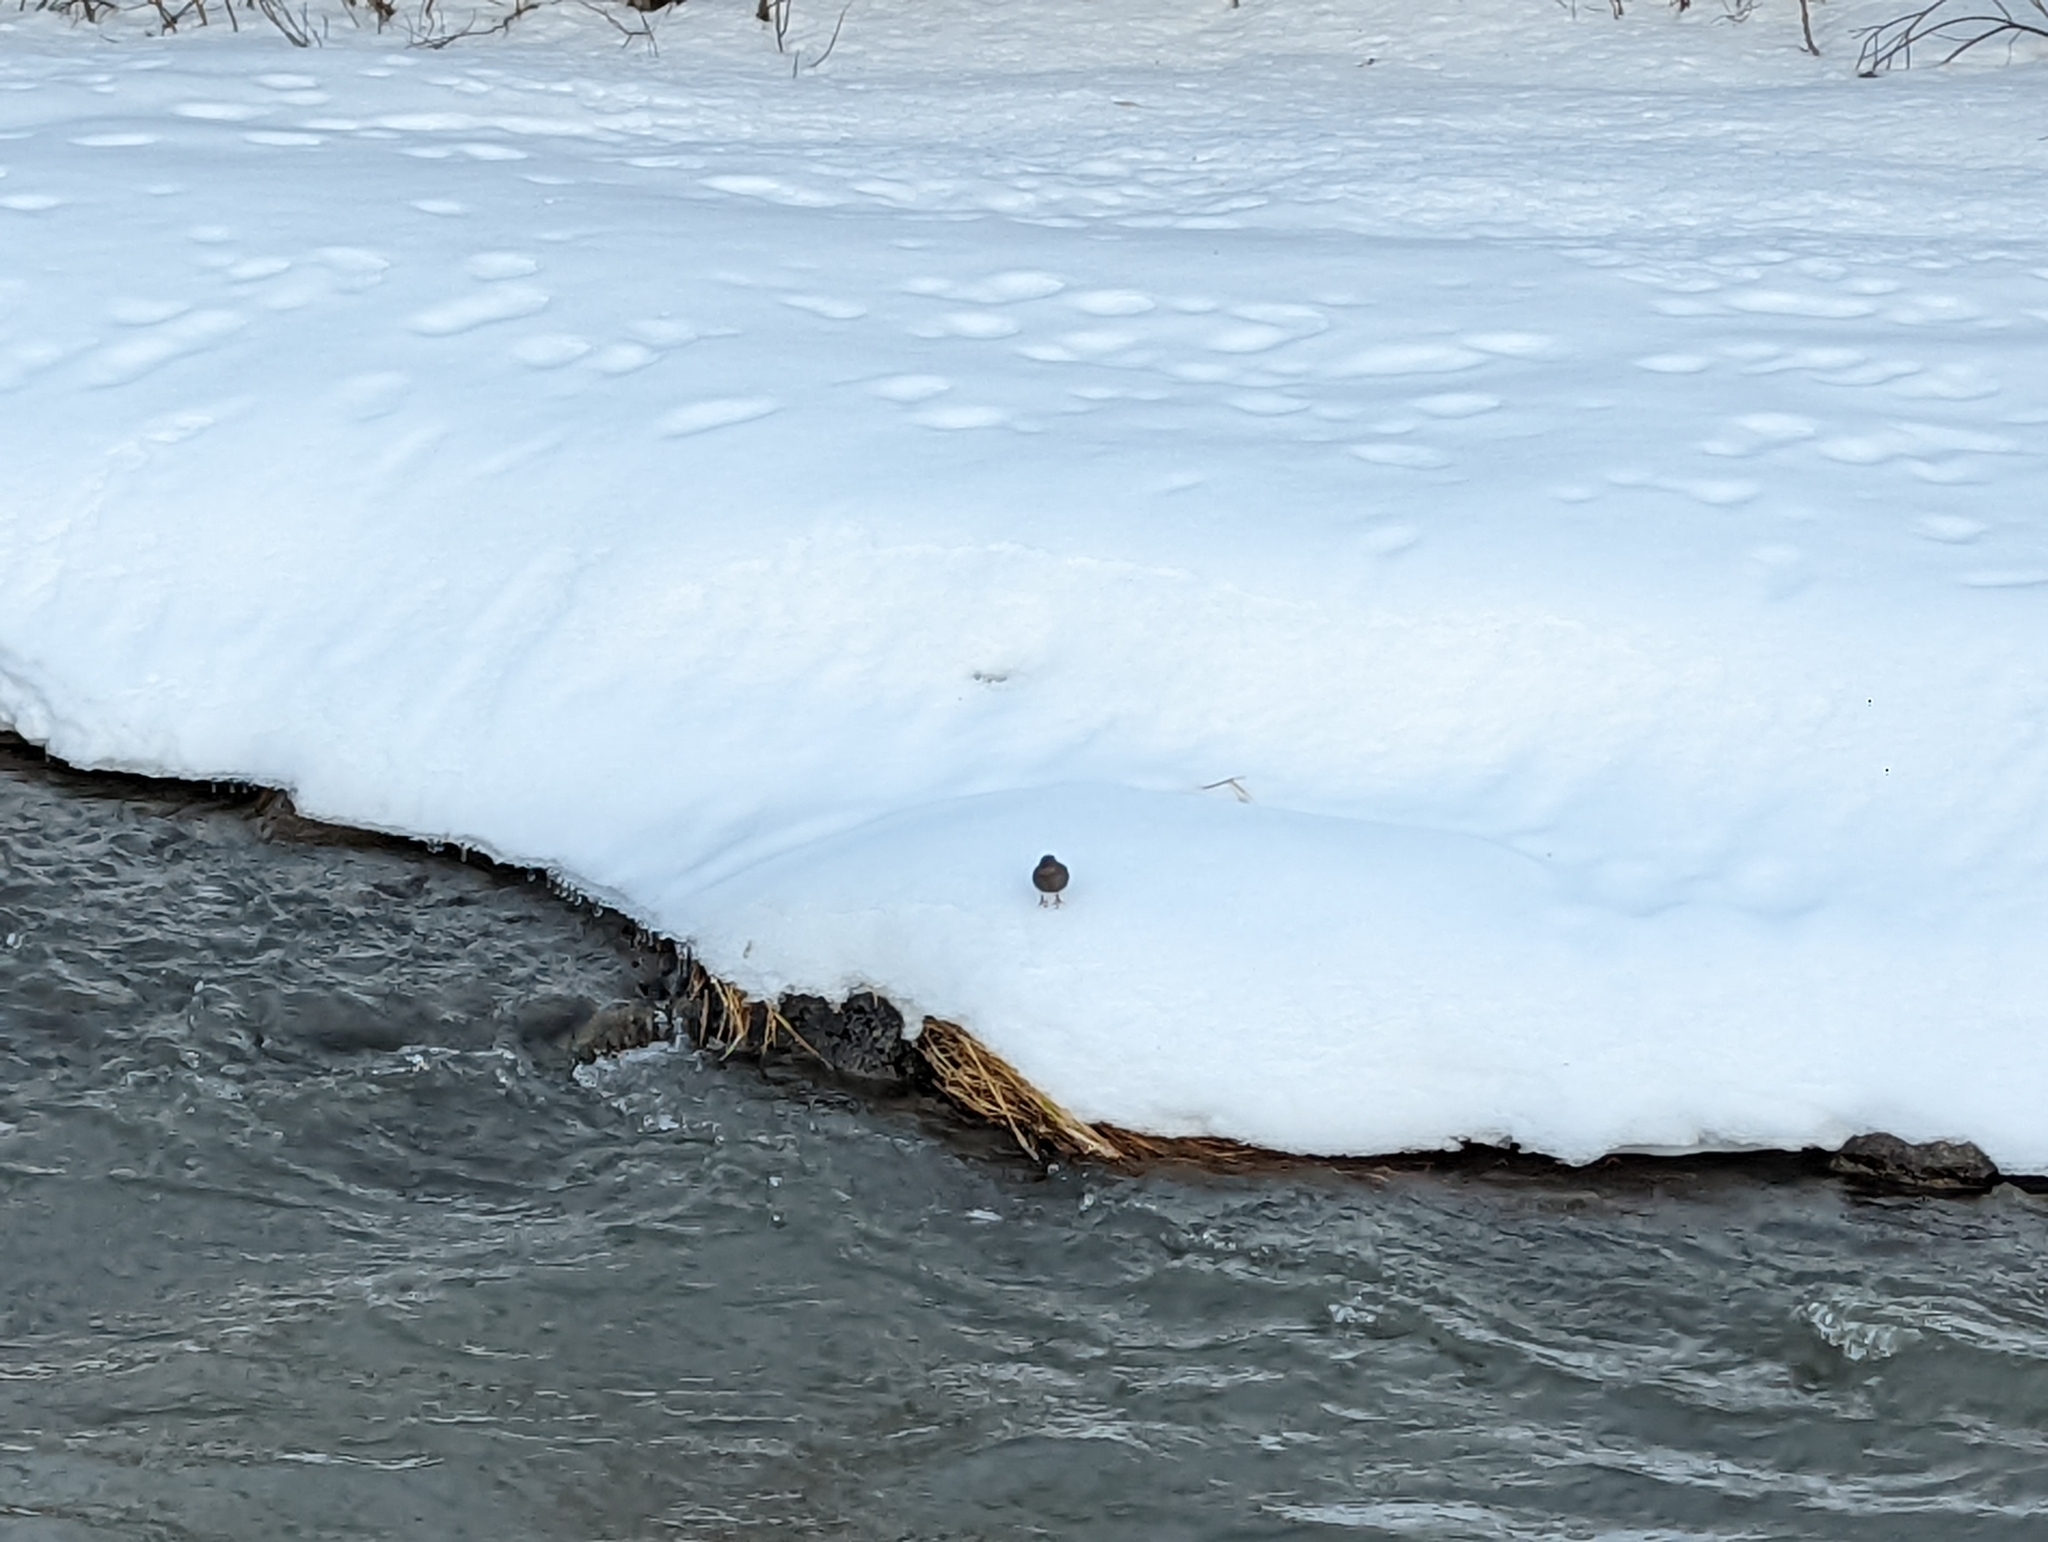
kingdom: Animalia
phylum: Chordata
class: Aves
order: Passeriformes
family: Cinclidae
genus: Cinclus
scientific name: Cinclus mexicanus
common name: American dipper
